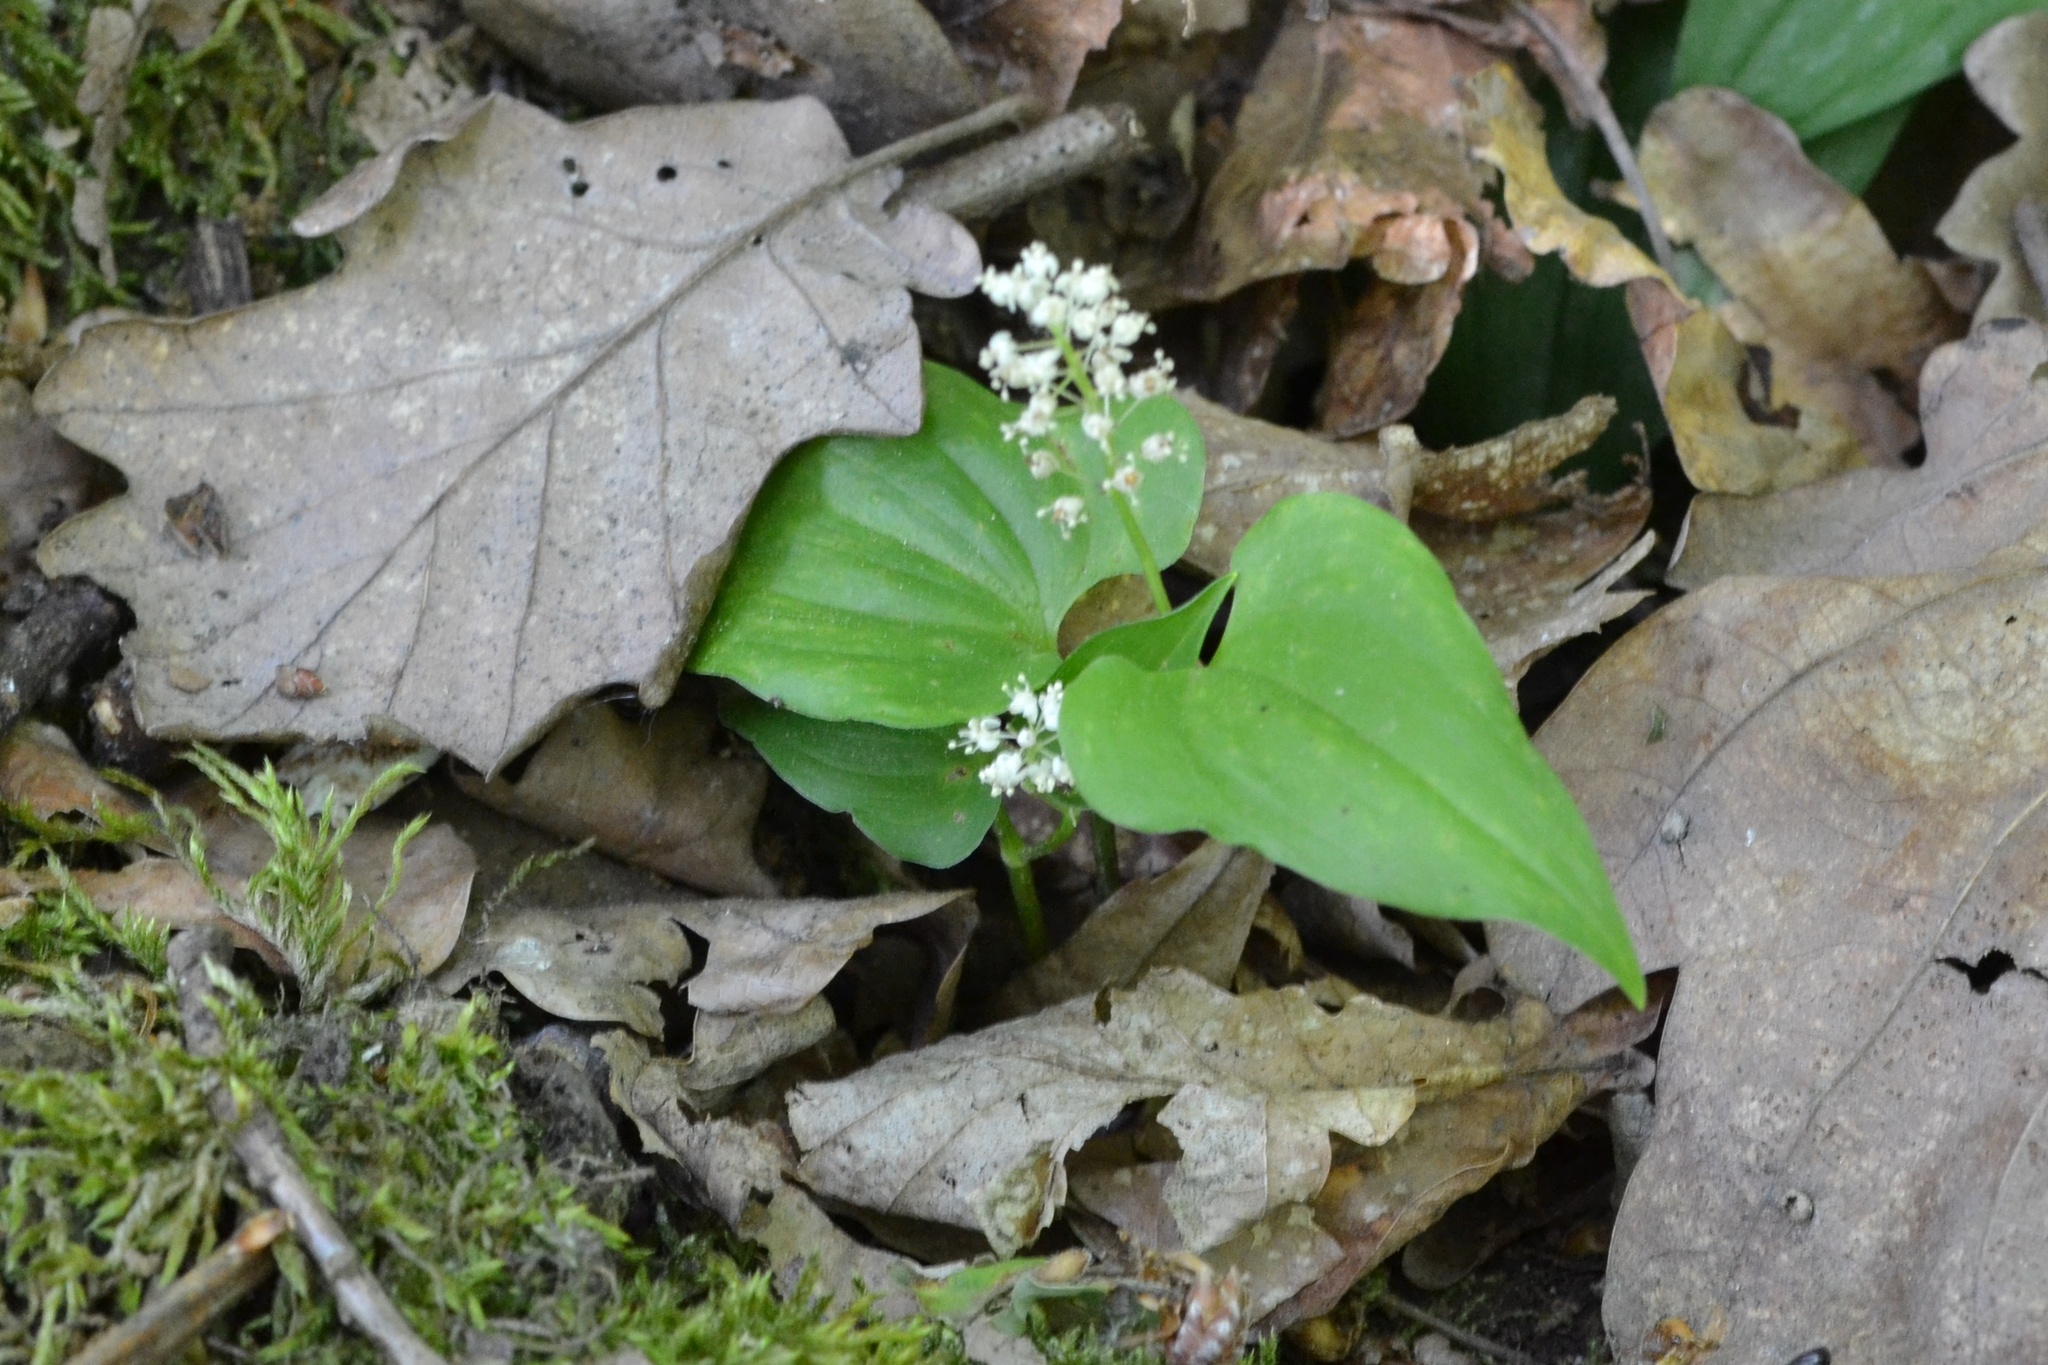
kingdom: Plantae
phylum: Tracheophyta
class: Liliopsida
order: Asparagales
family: Asparagaceae
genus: Maianthemum
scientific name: Maianthemum bifolium
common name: May lily
